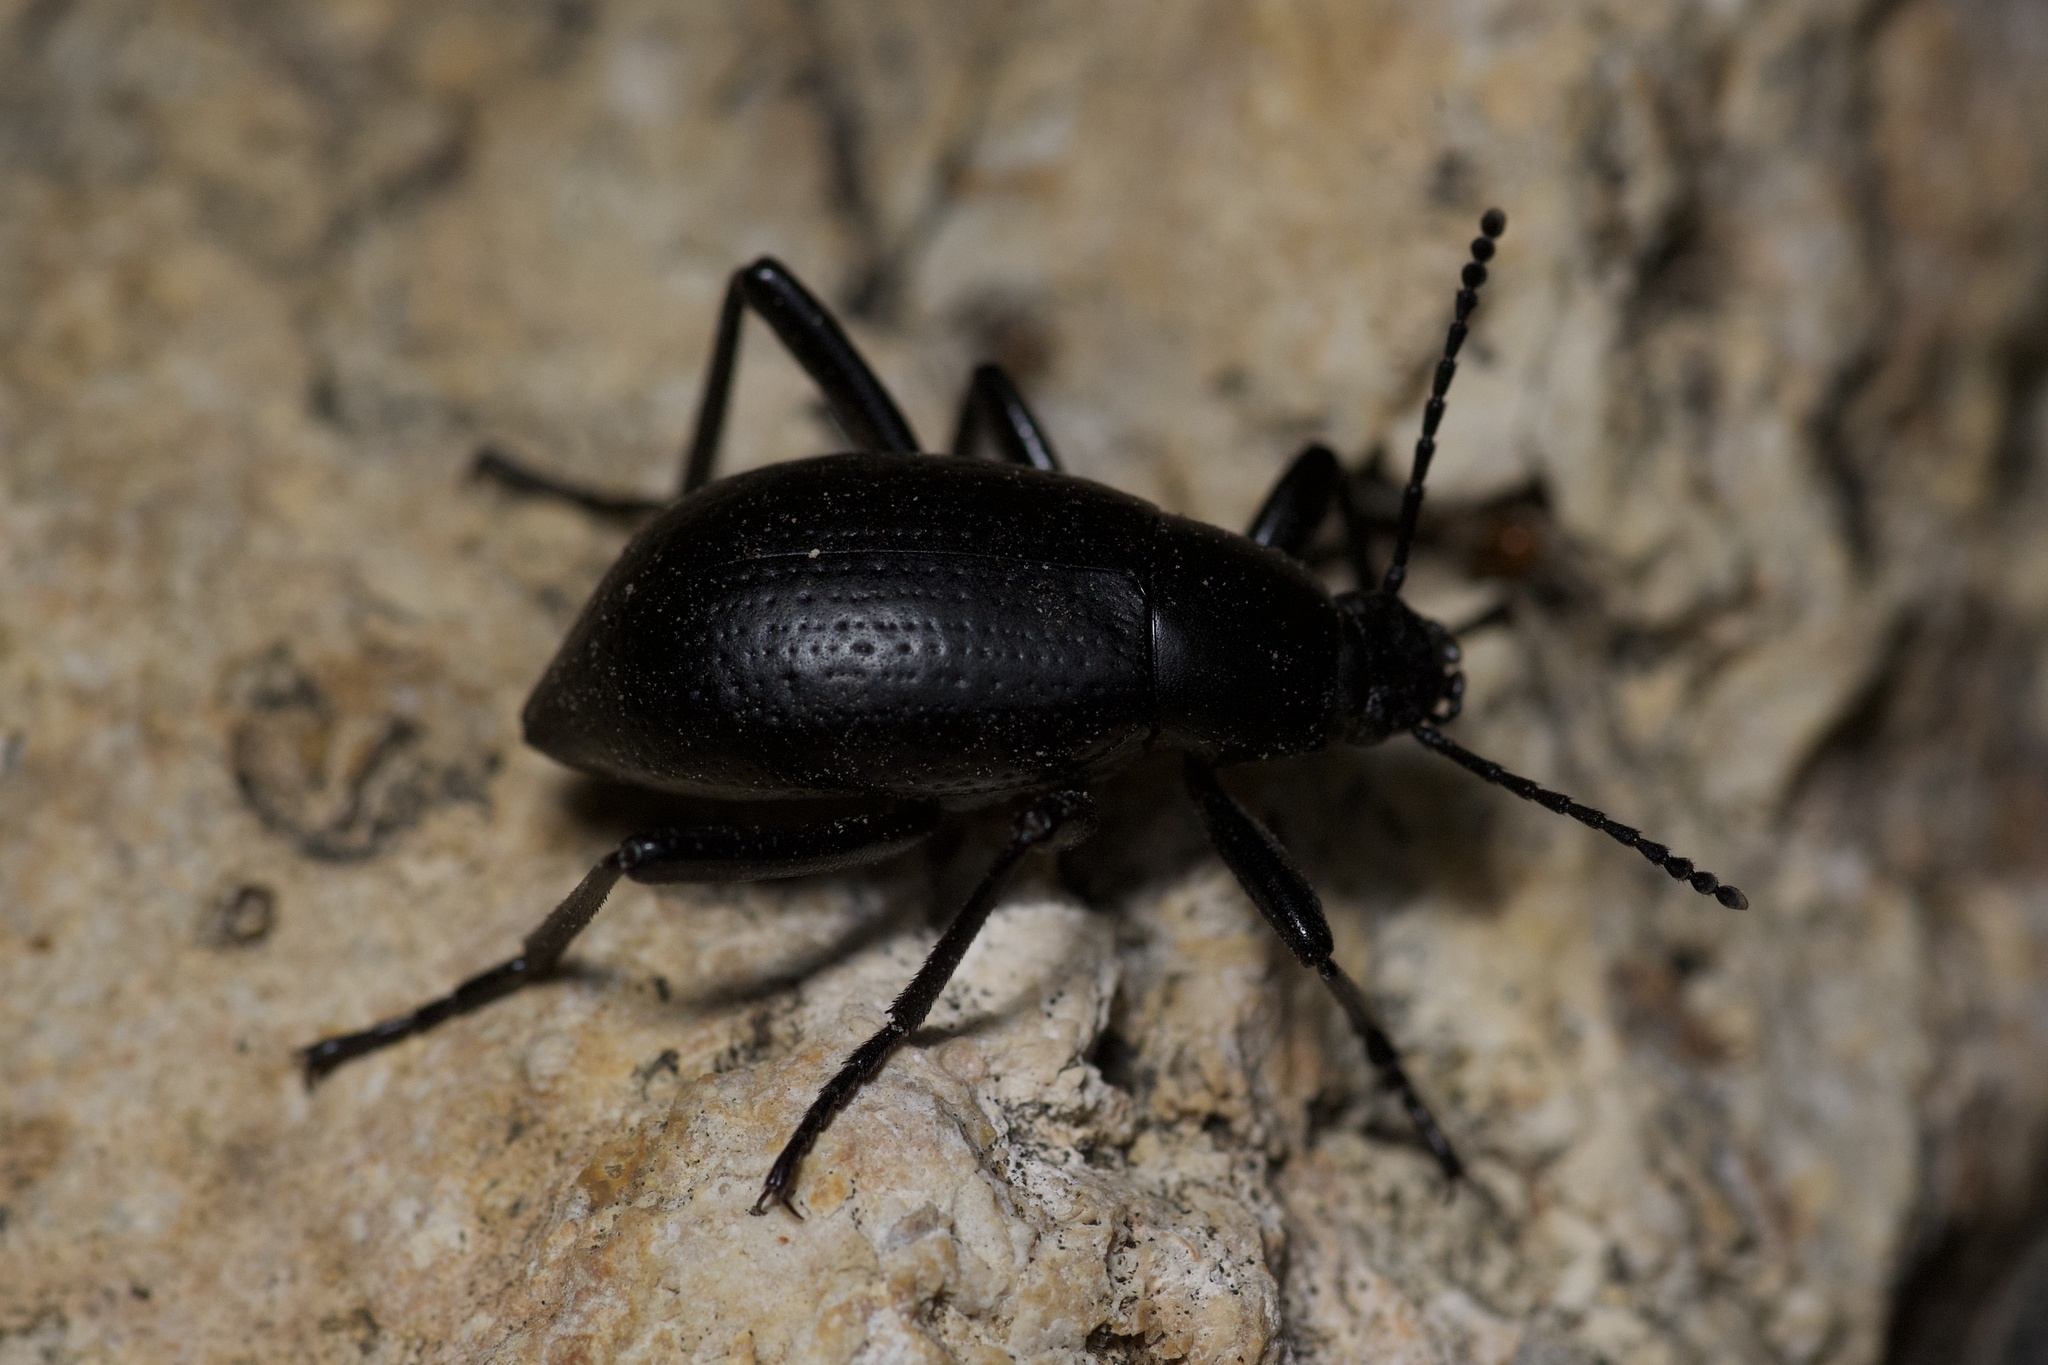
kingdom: Animalia
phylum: Arthropoda
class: Insecta
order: Coleoptera
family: Tenebrionidae
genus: Eleodes
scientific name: Eleodes goryi
